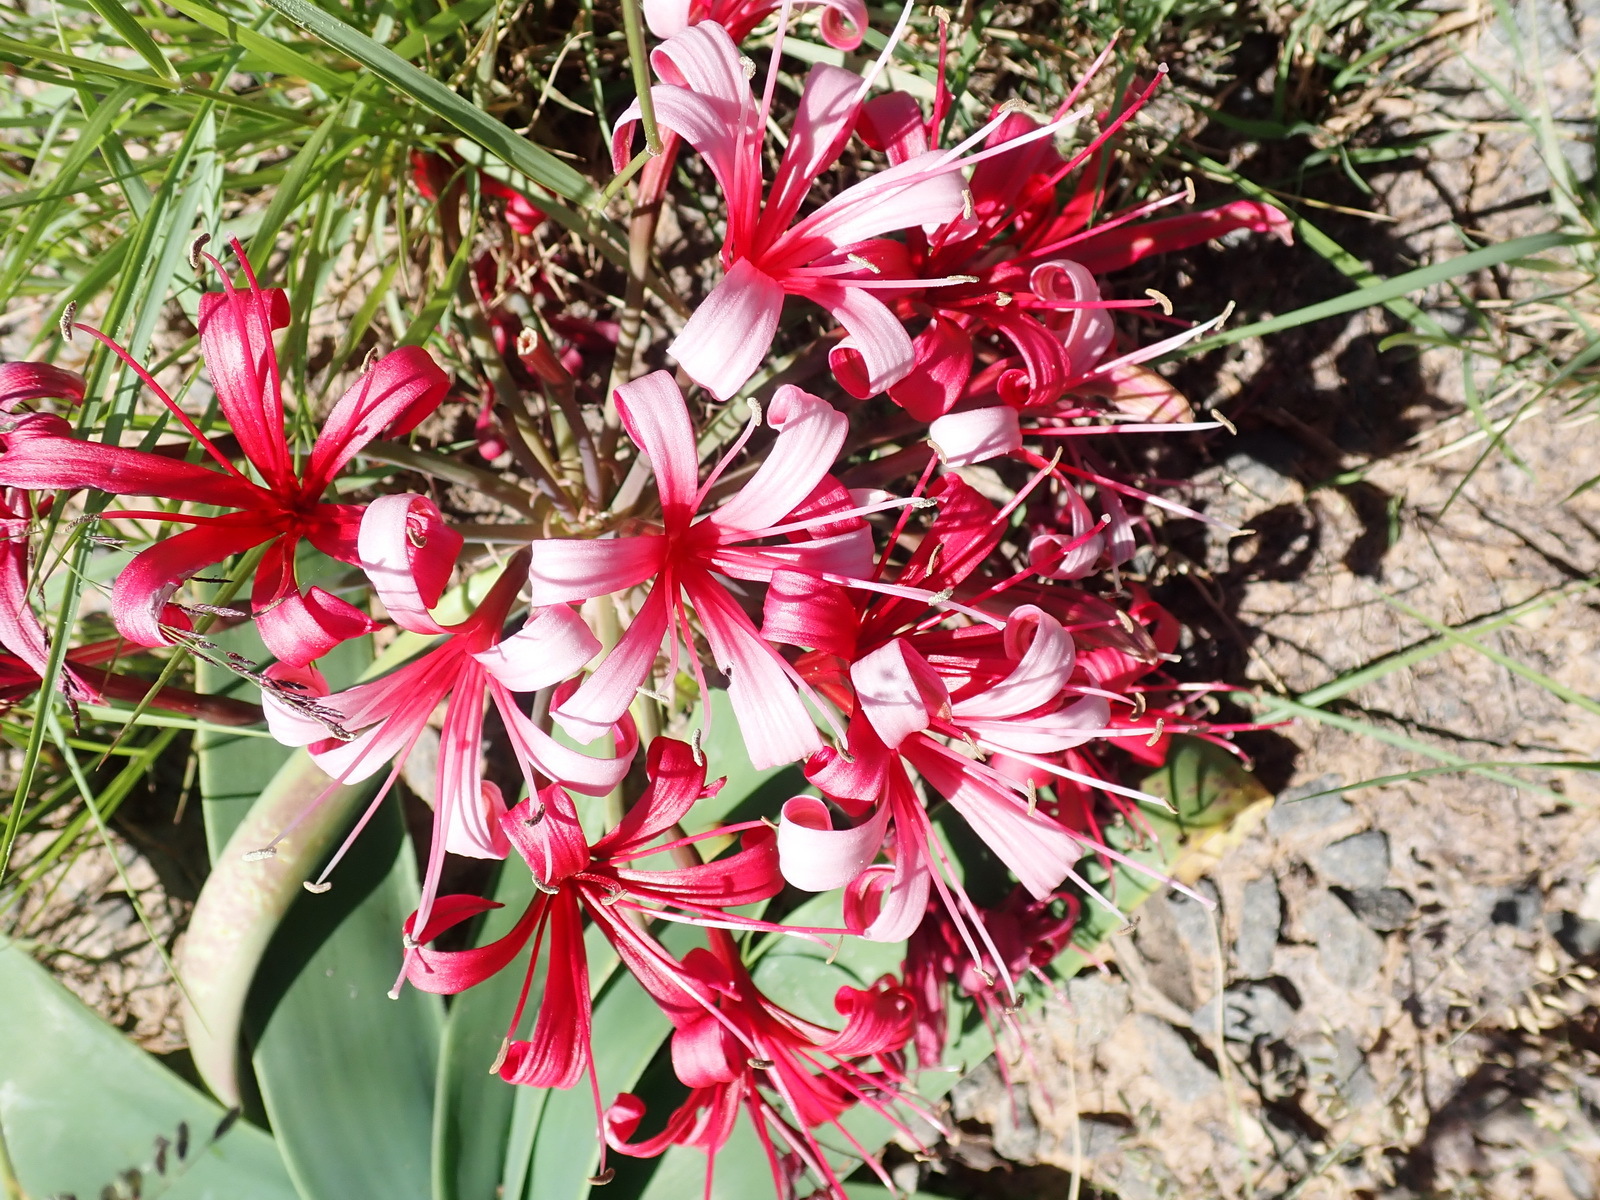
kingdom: Plantae
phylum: Tracheophyta
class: Liliopsida
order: Asparagales
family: Amaryllidaceae
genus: Ammocharis
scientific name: Ammocharis coranica
